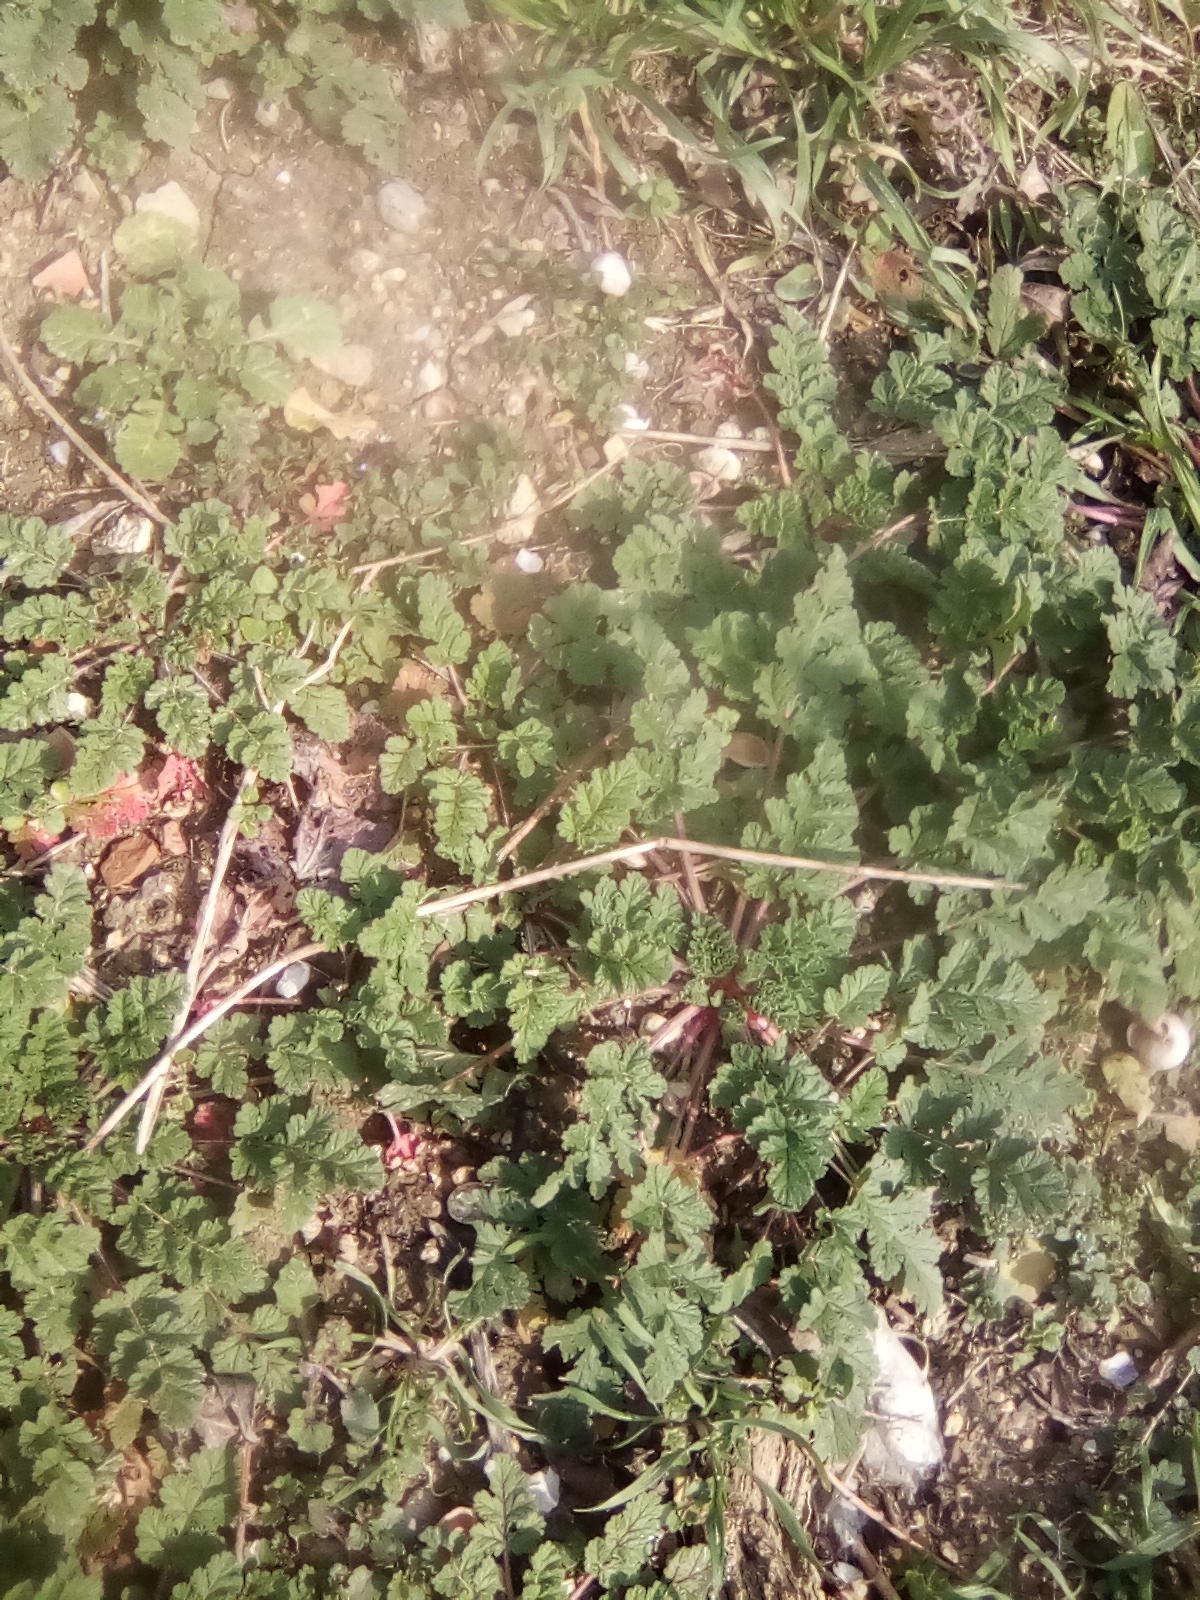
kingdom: Plantae
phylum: Tracheophyta
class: Magnoliopsida
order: Geraniales
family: Geraniaceae
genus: Erodium
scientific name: Erodium ciconium
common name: Common stork's bill
